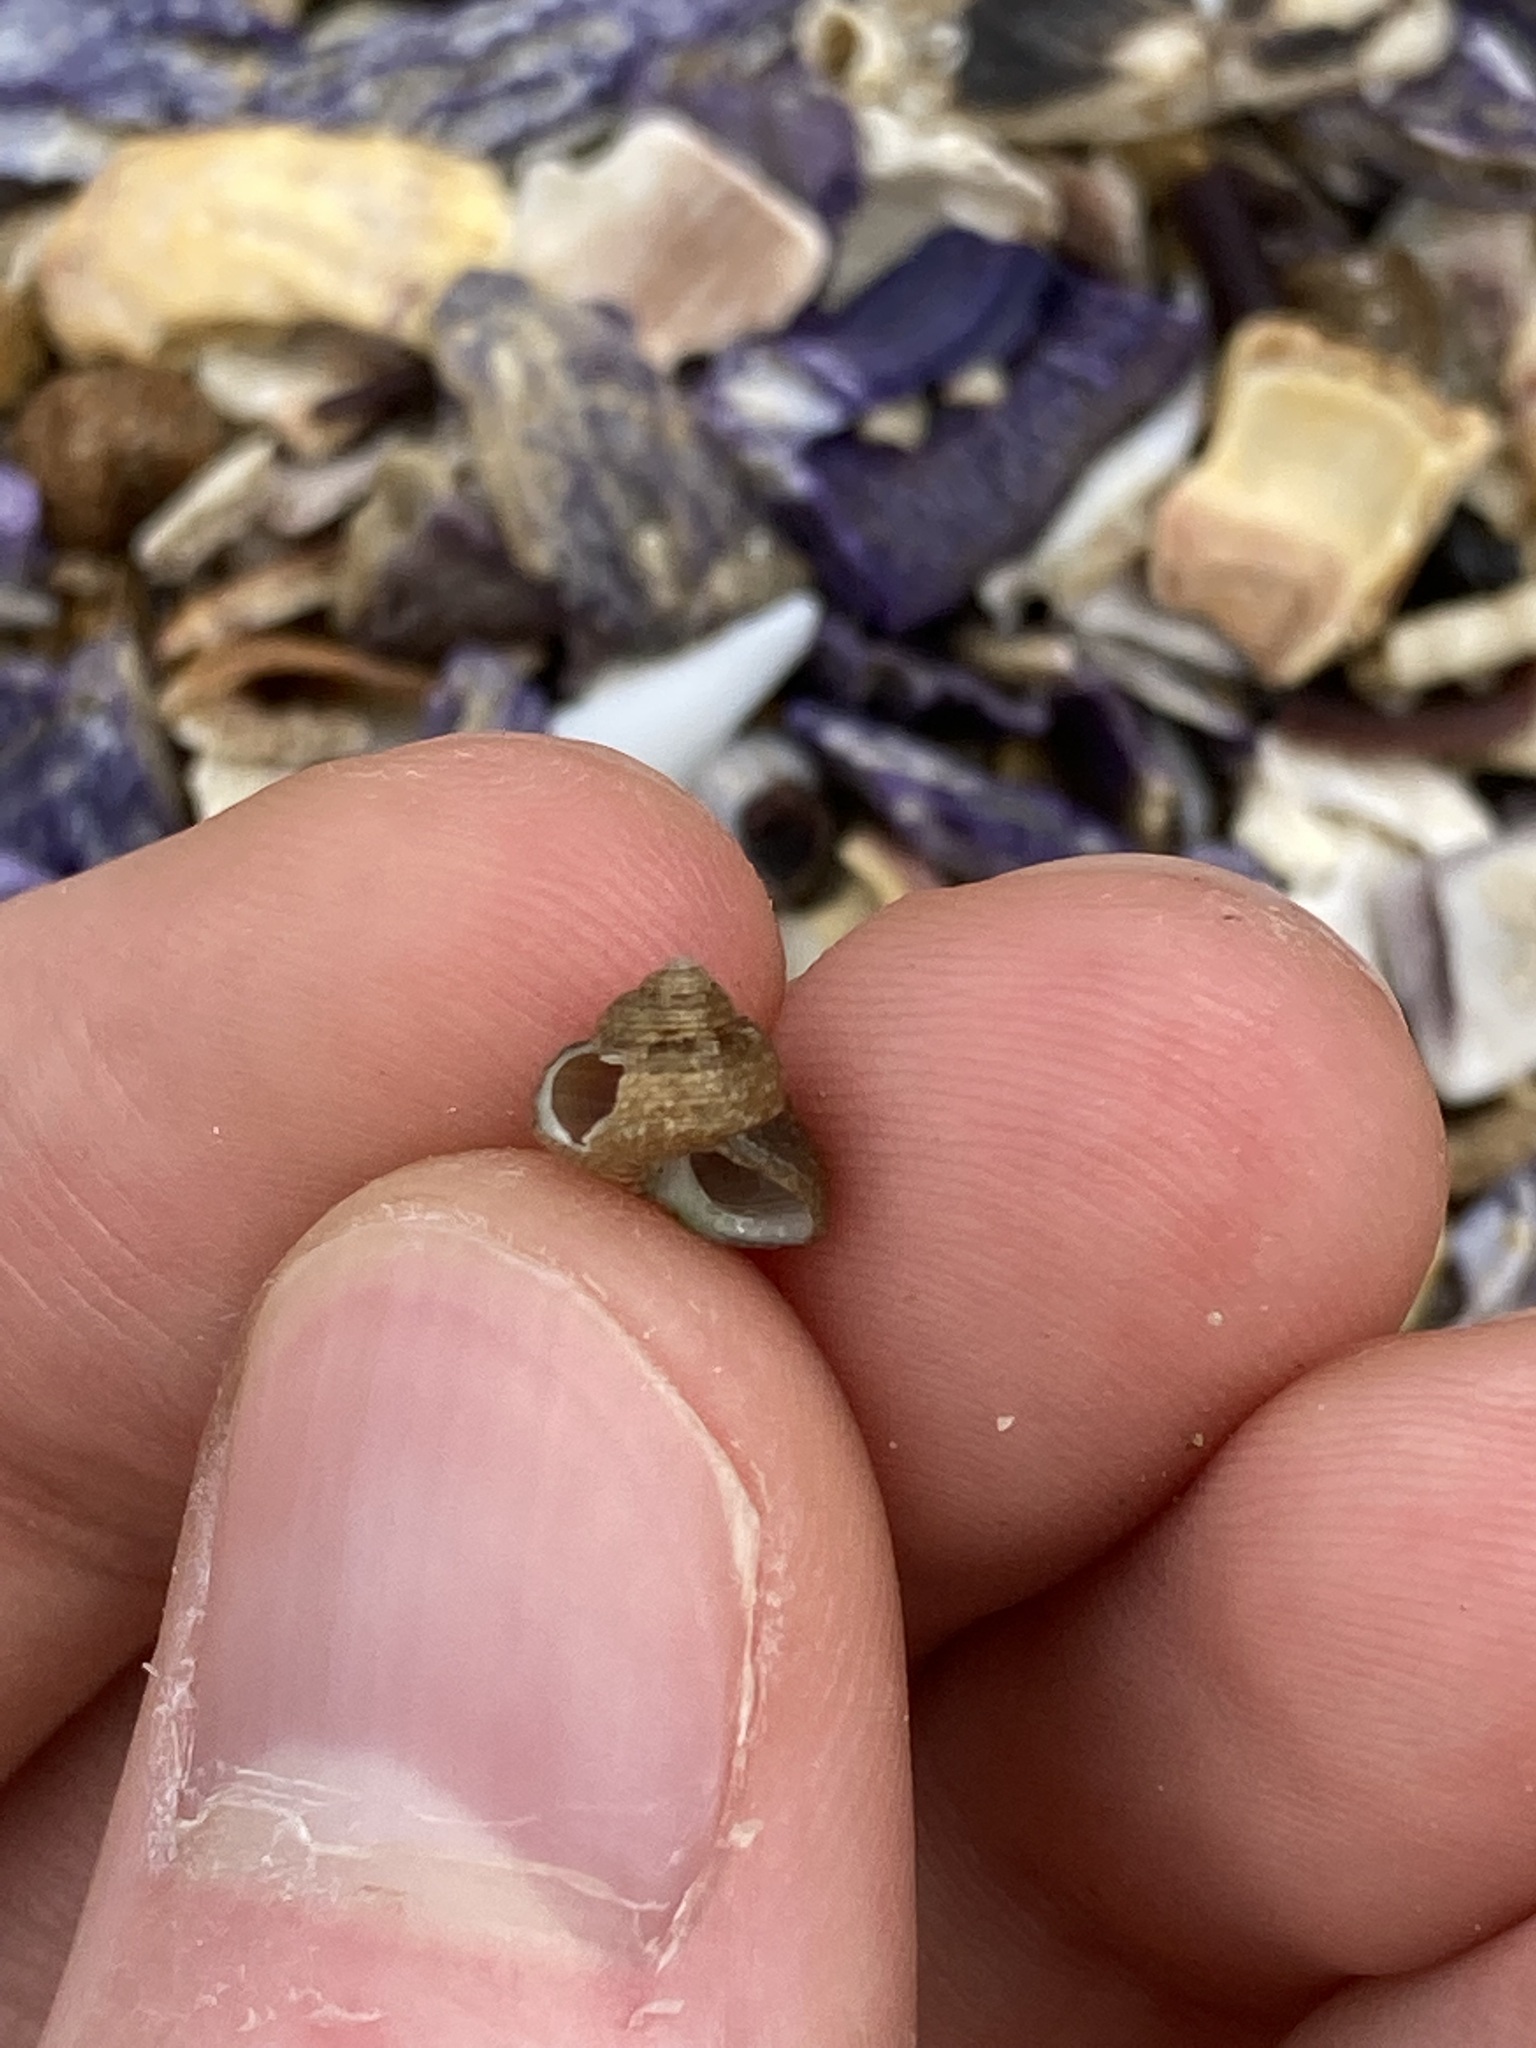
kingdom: Animalia
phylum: Mollusca
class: Gastropoda
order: Trochida
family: Trochidae
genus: Eurytrochus
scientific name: Eurytrochus strangei
